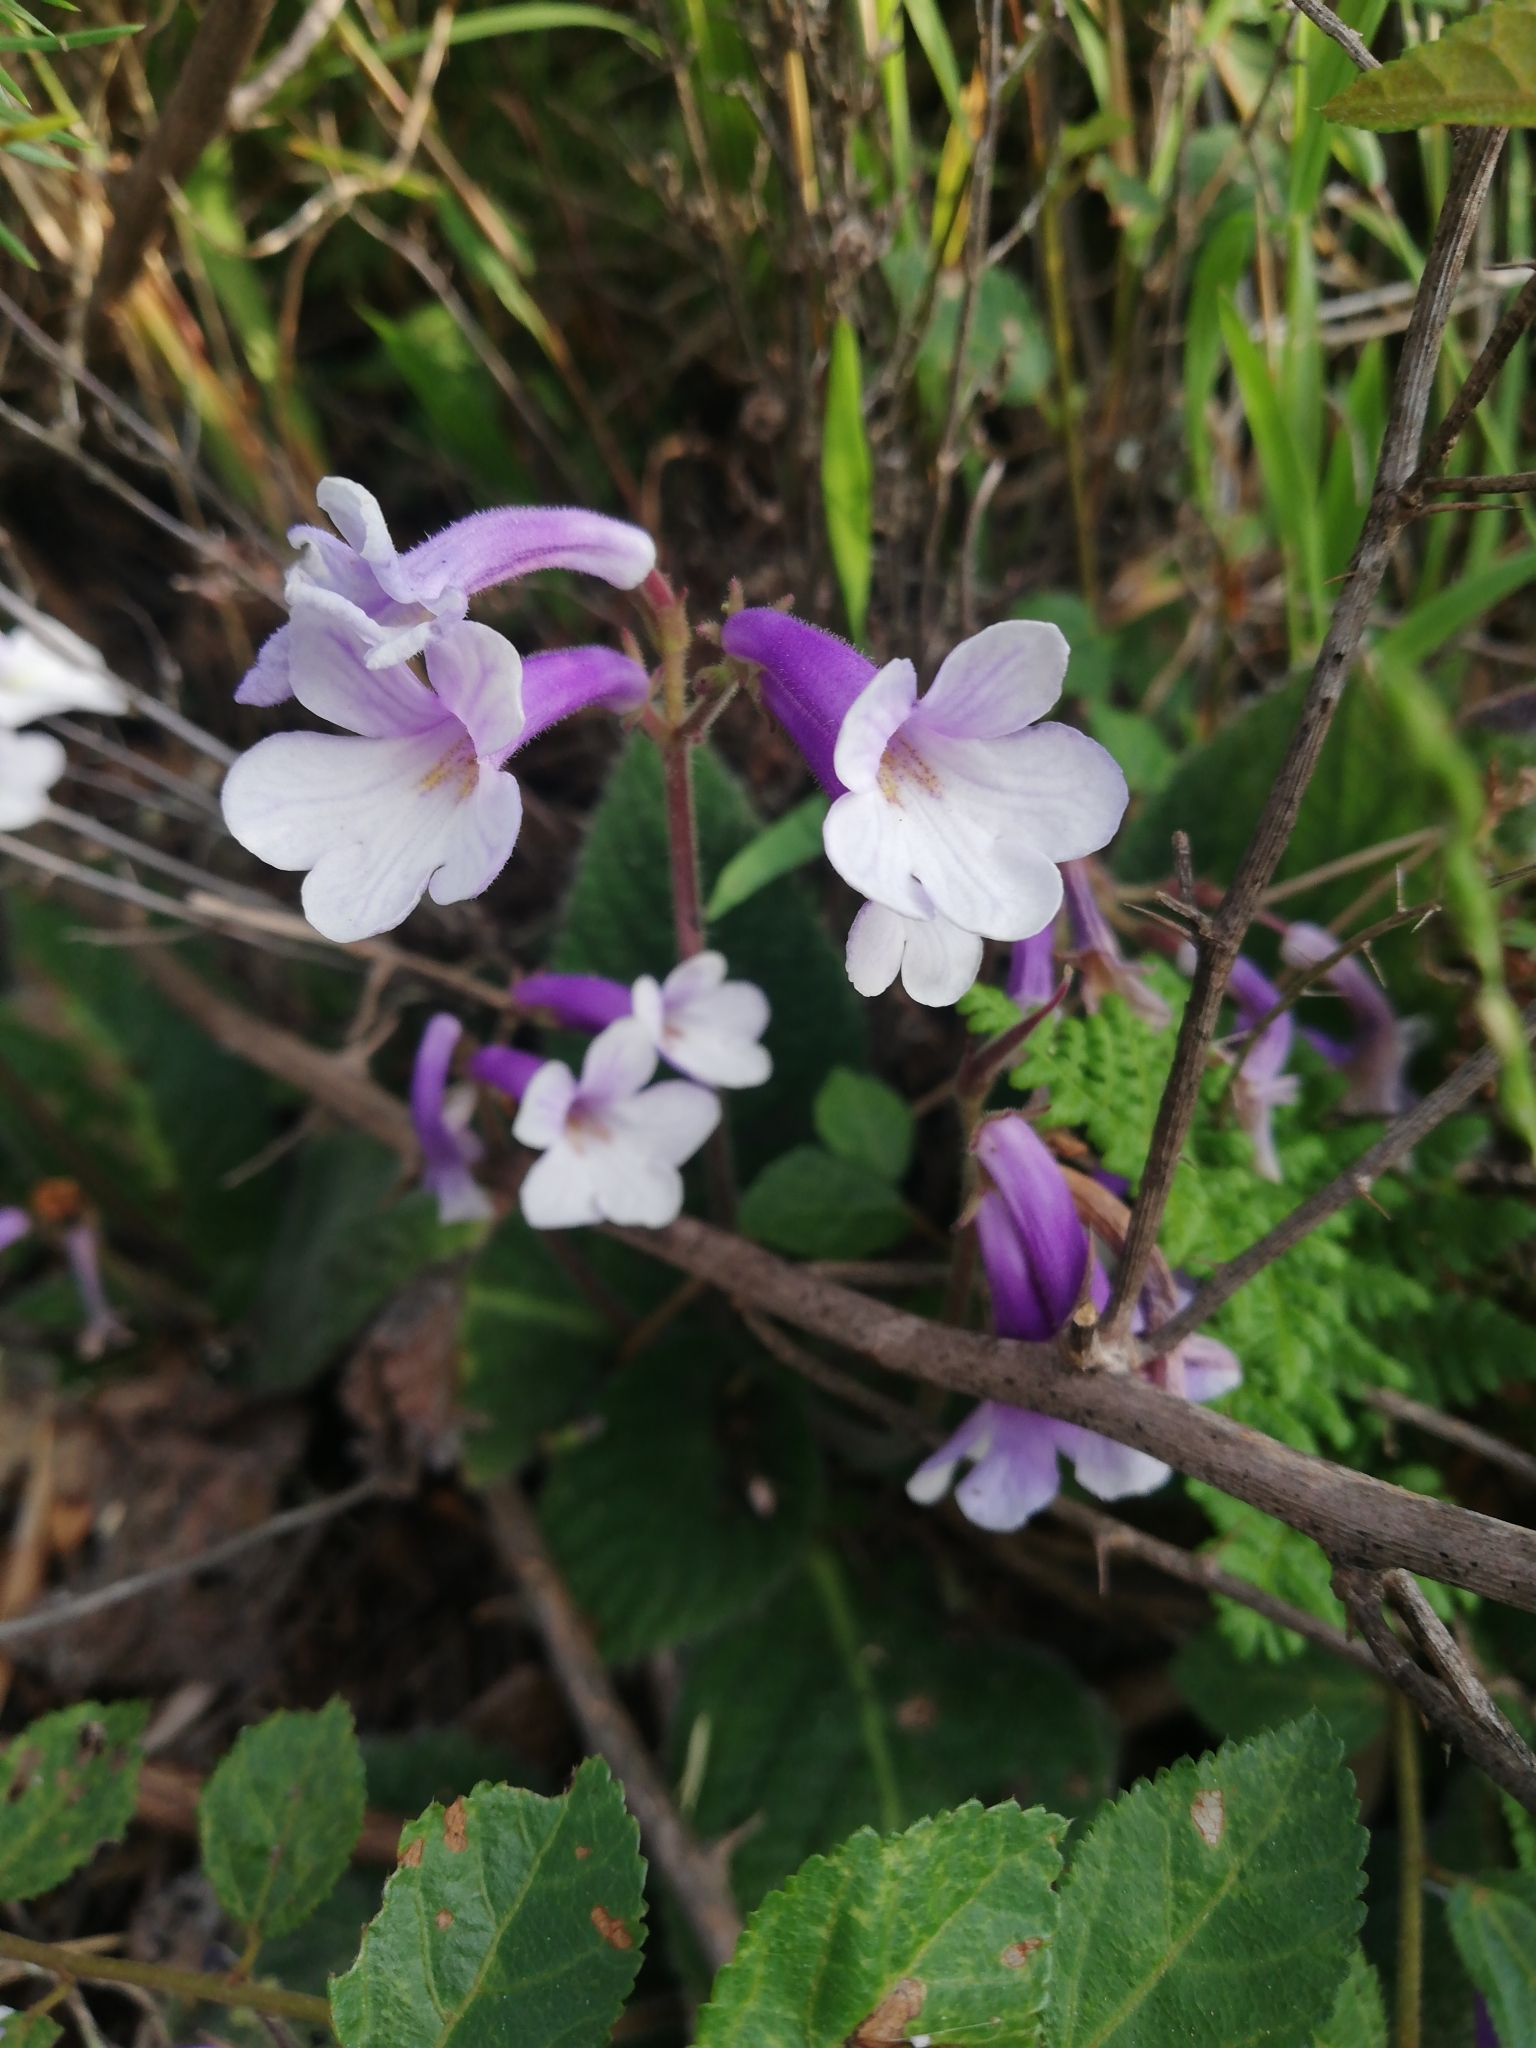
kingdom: Plantae
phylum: Tracheophyta
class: Magnoliopsida
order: Lamiales
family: Gesneriaceae
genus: Streptocarpus
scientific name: Streptocarpus meyeri
